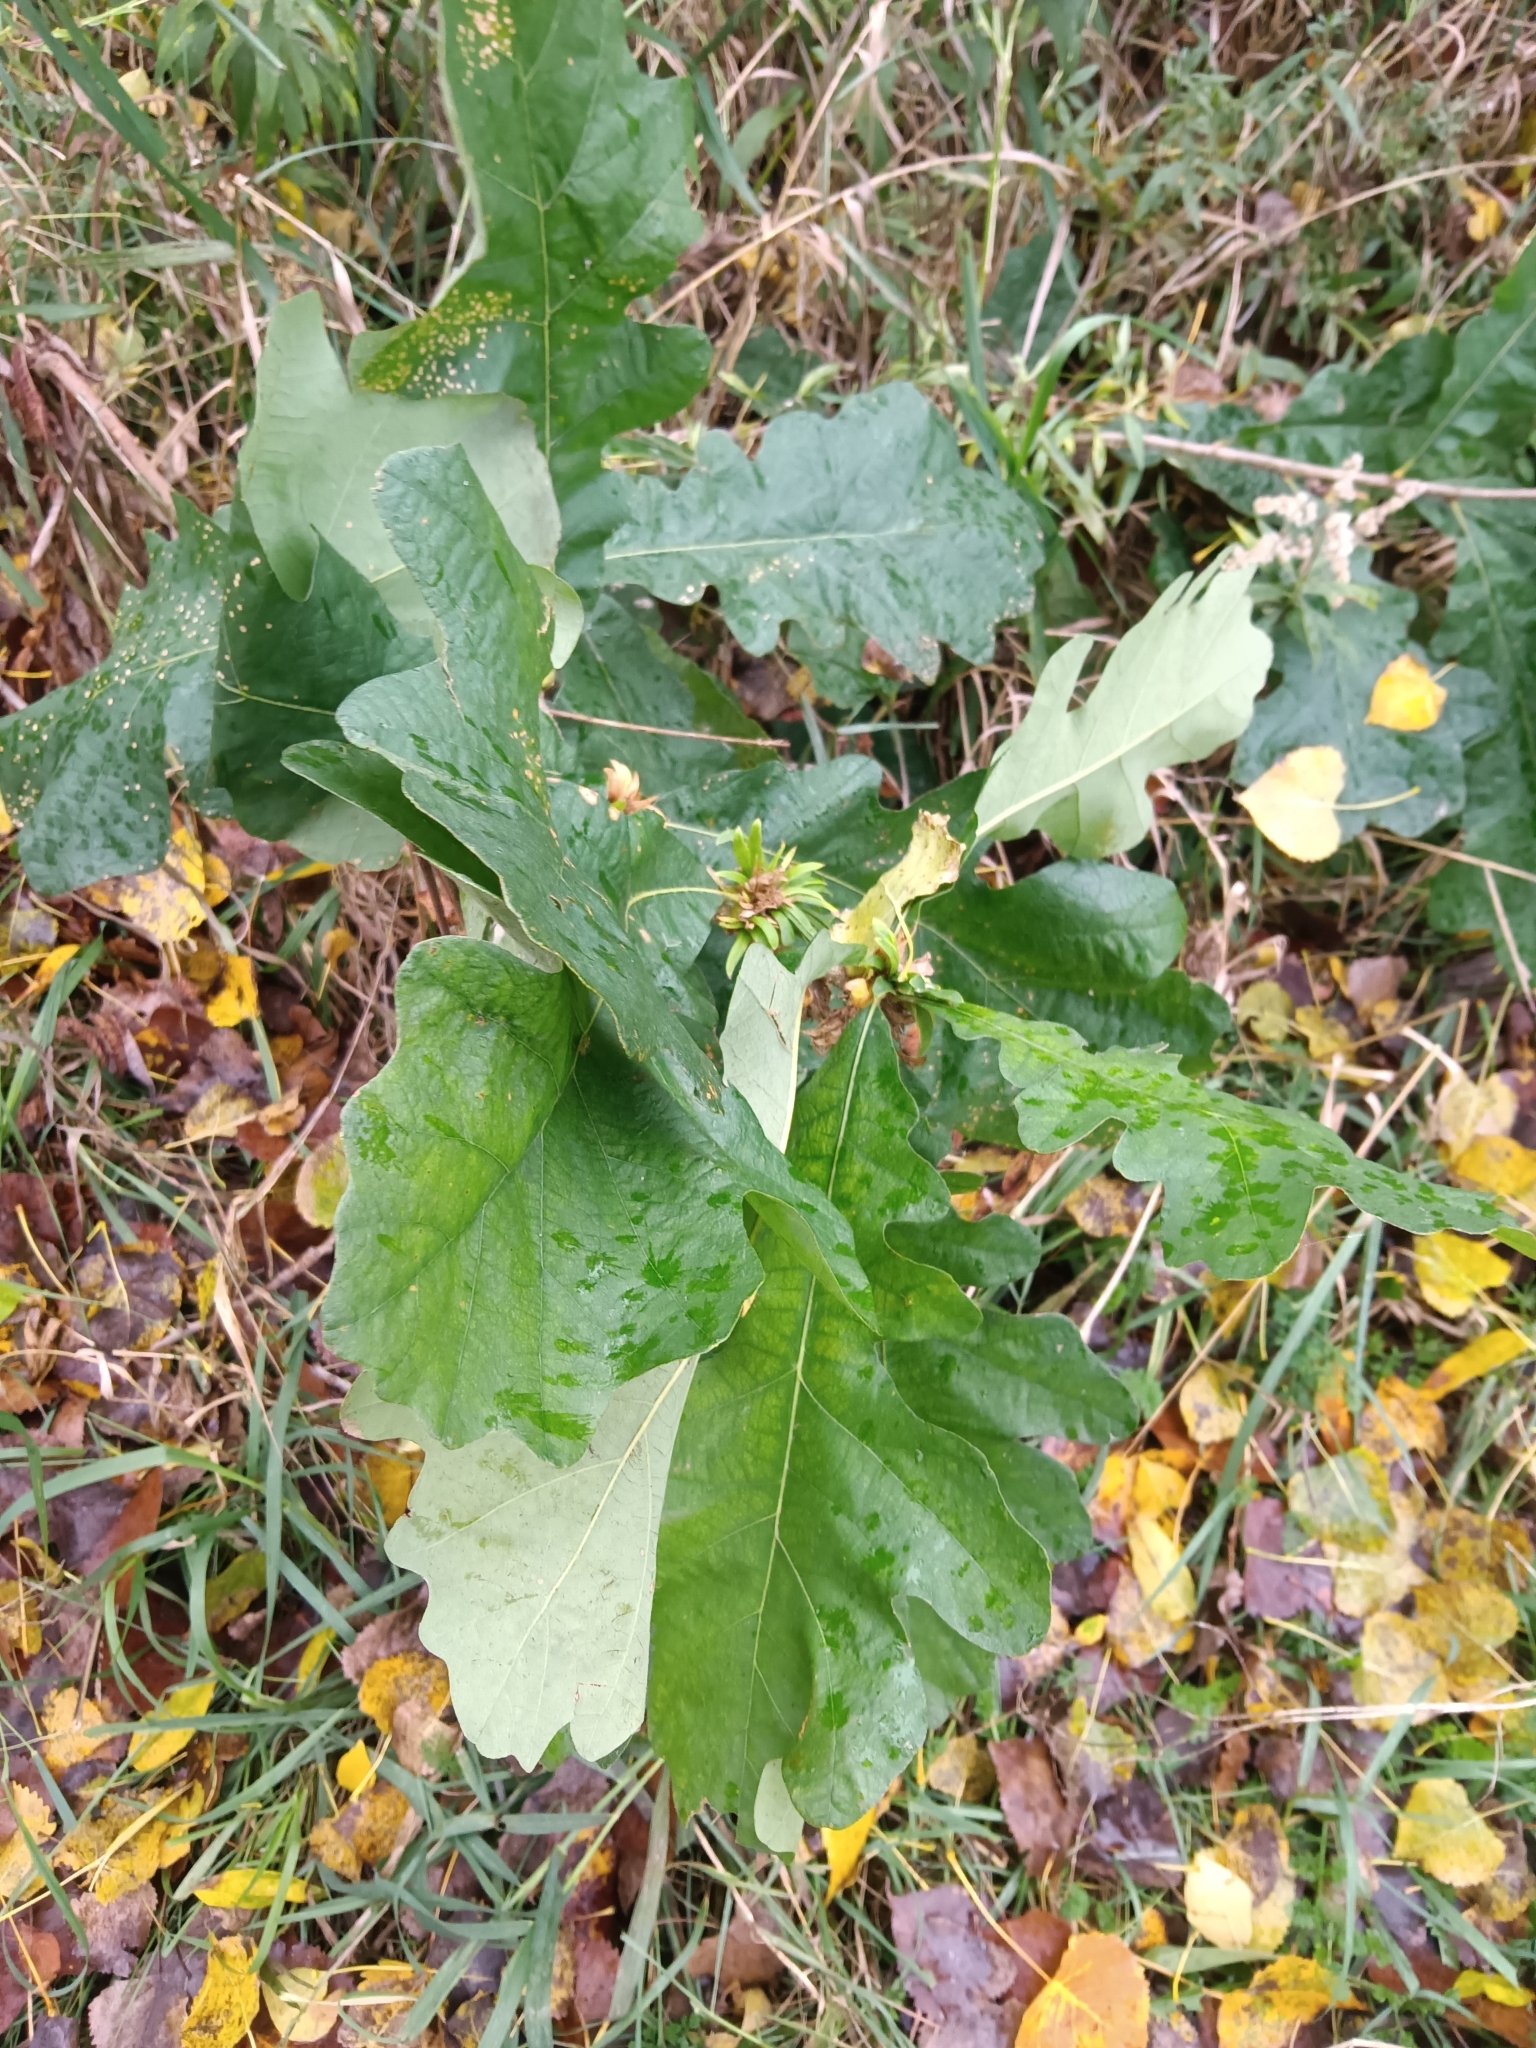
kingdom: Plantae
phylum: Tracheophyta
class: Magnoliopsida
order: Fagales
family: Fagaceae
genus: Quercus
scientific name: Quercus macrocarpa
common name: Bur oak
